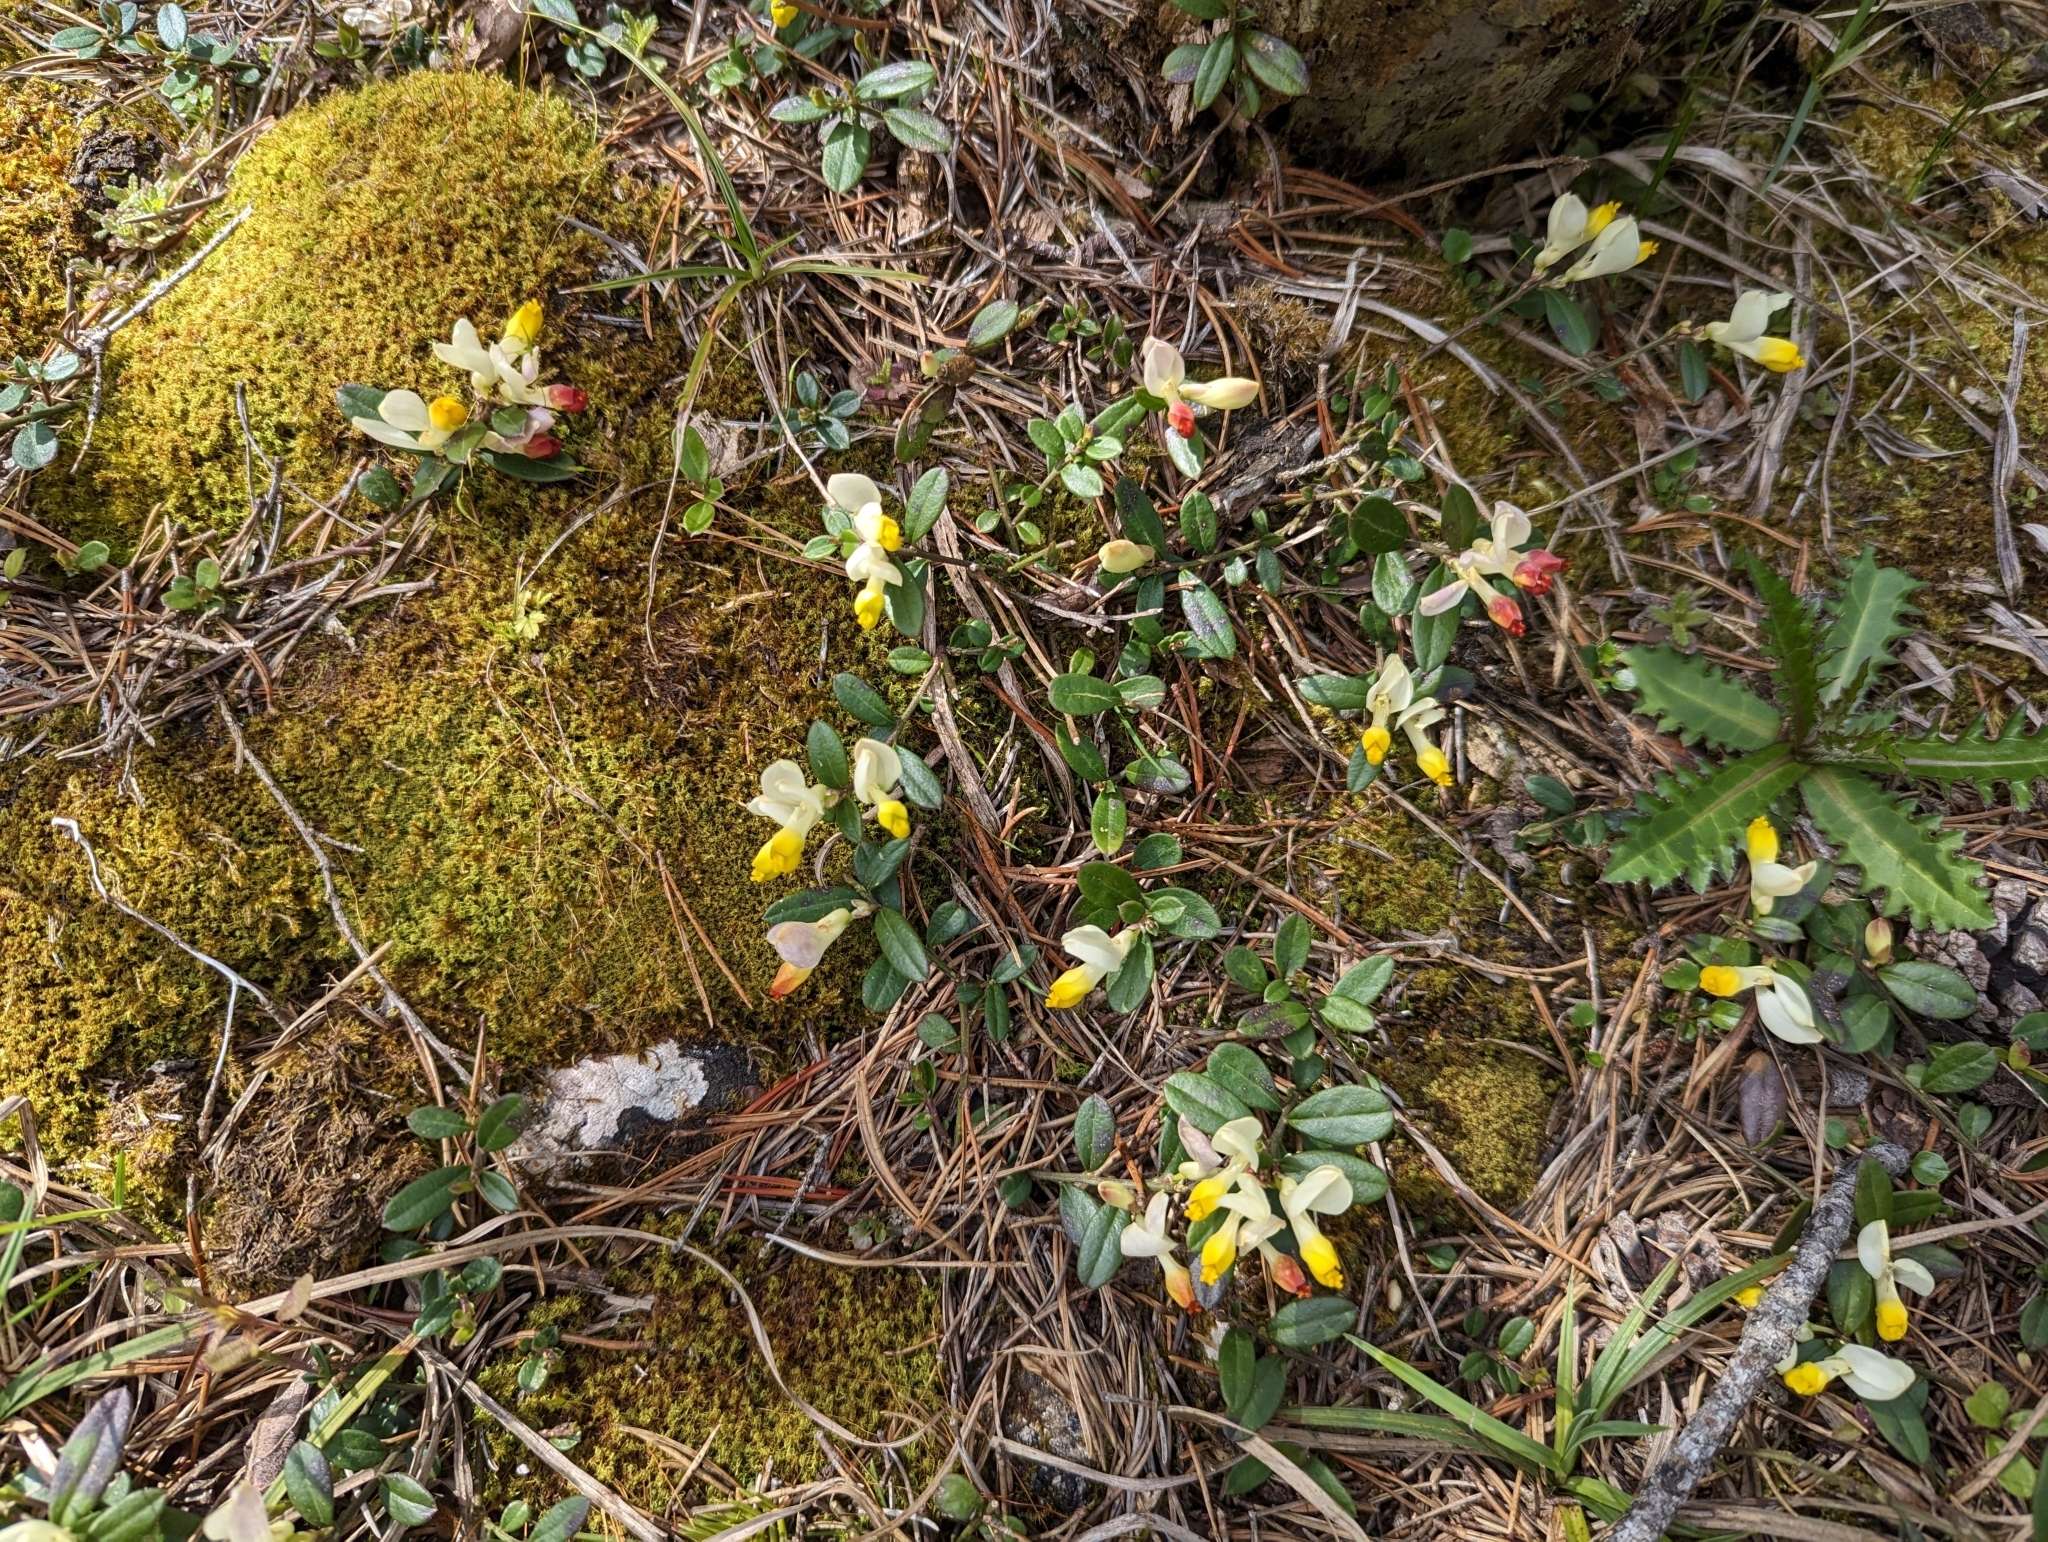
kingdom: Plantae
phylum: Tracheophyta
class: Magnoliopsida
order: Fabales
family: Polygalaceae
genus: Polygaloides
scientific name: Polygaloides chamaebuxus
